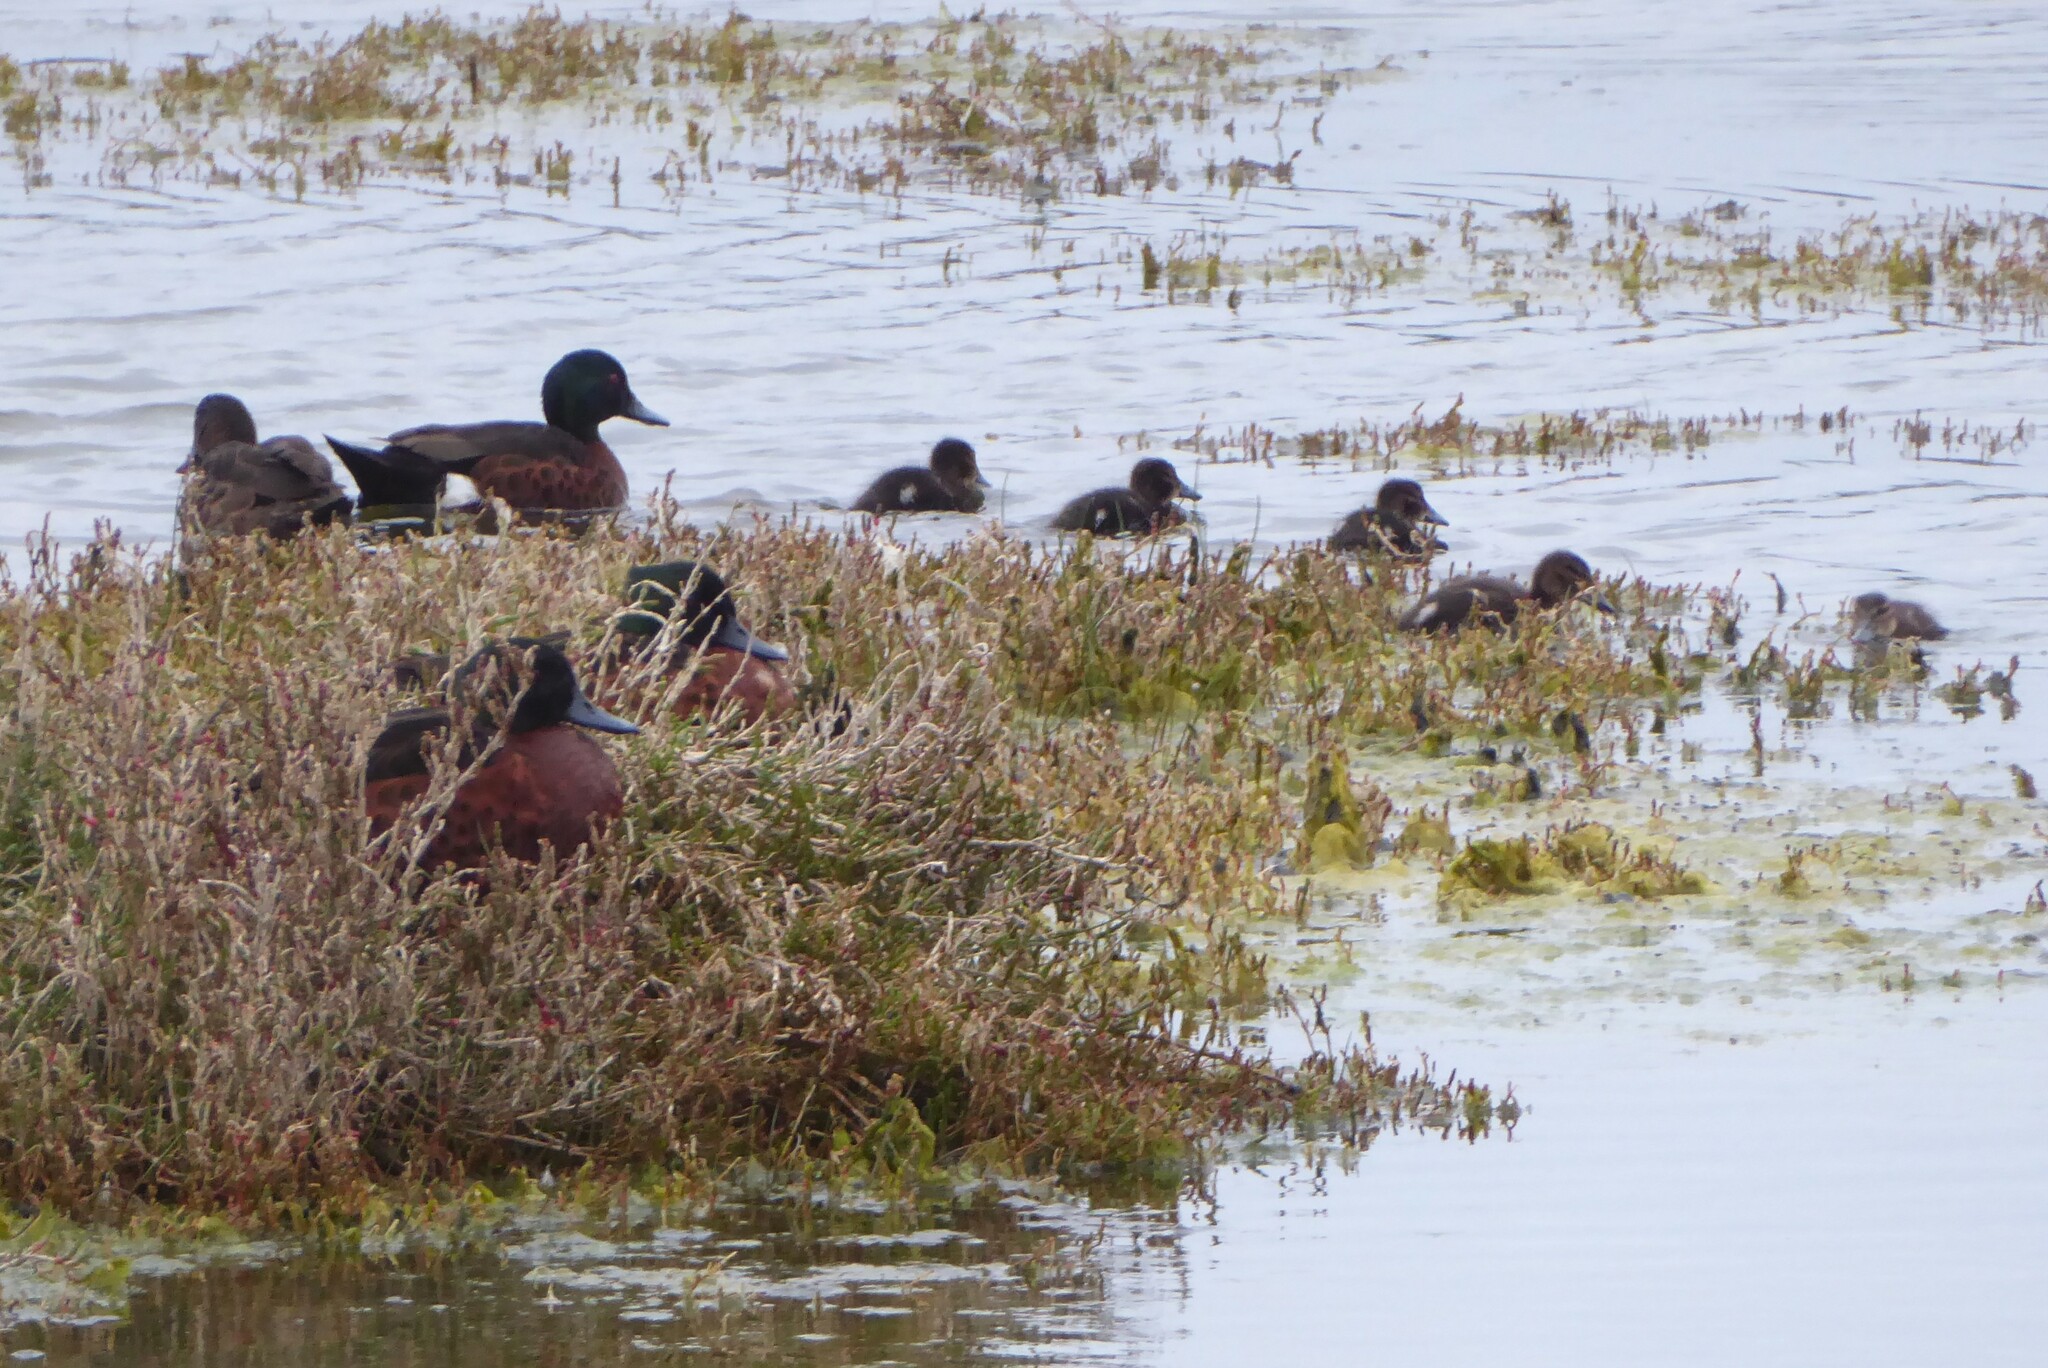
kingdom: Animalia
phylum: Chordata
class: Aves
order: Anseriformes
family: Anatidae
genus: Anas
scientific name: Anas castanea
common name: Chestnut teal
